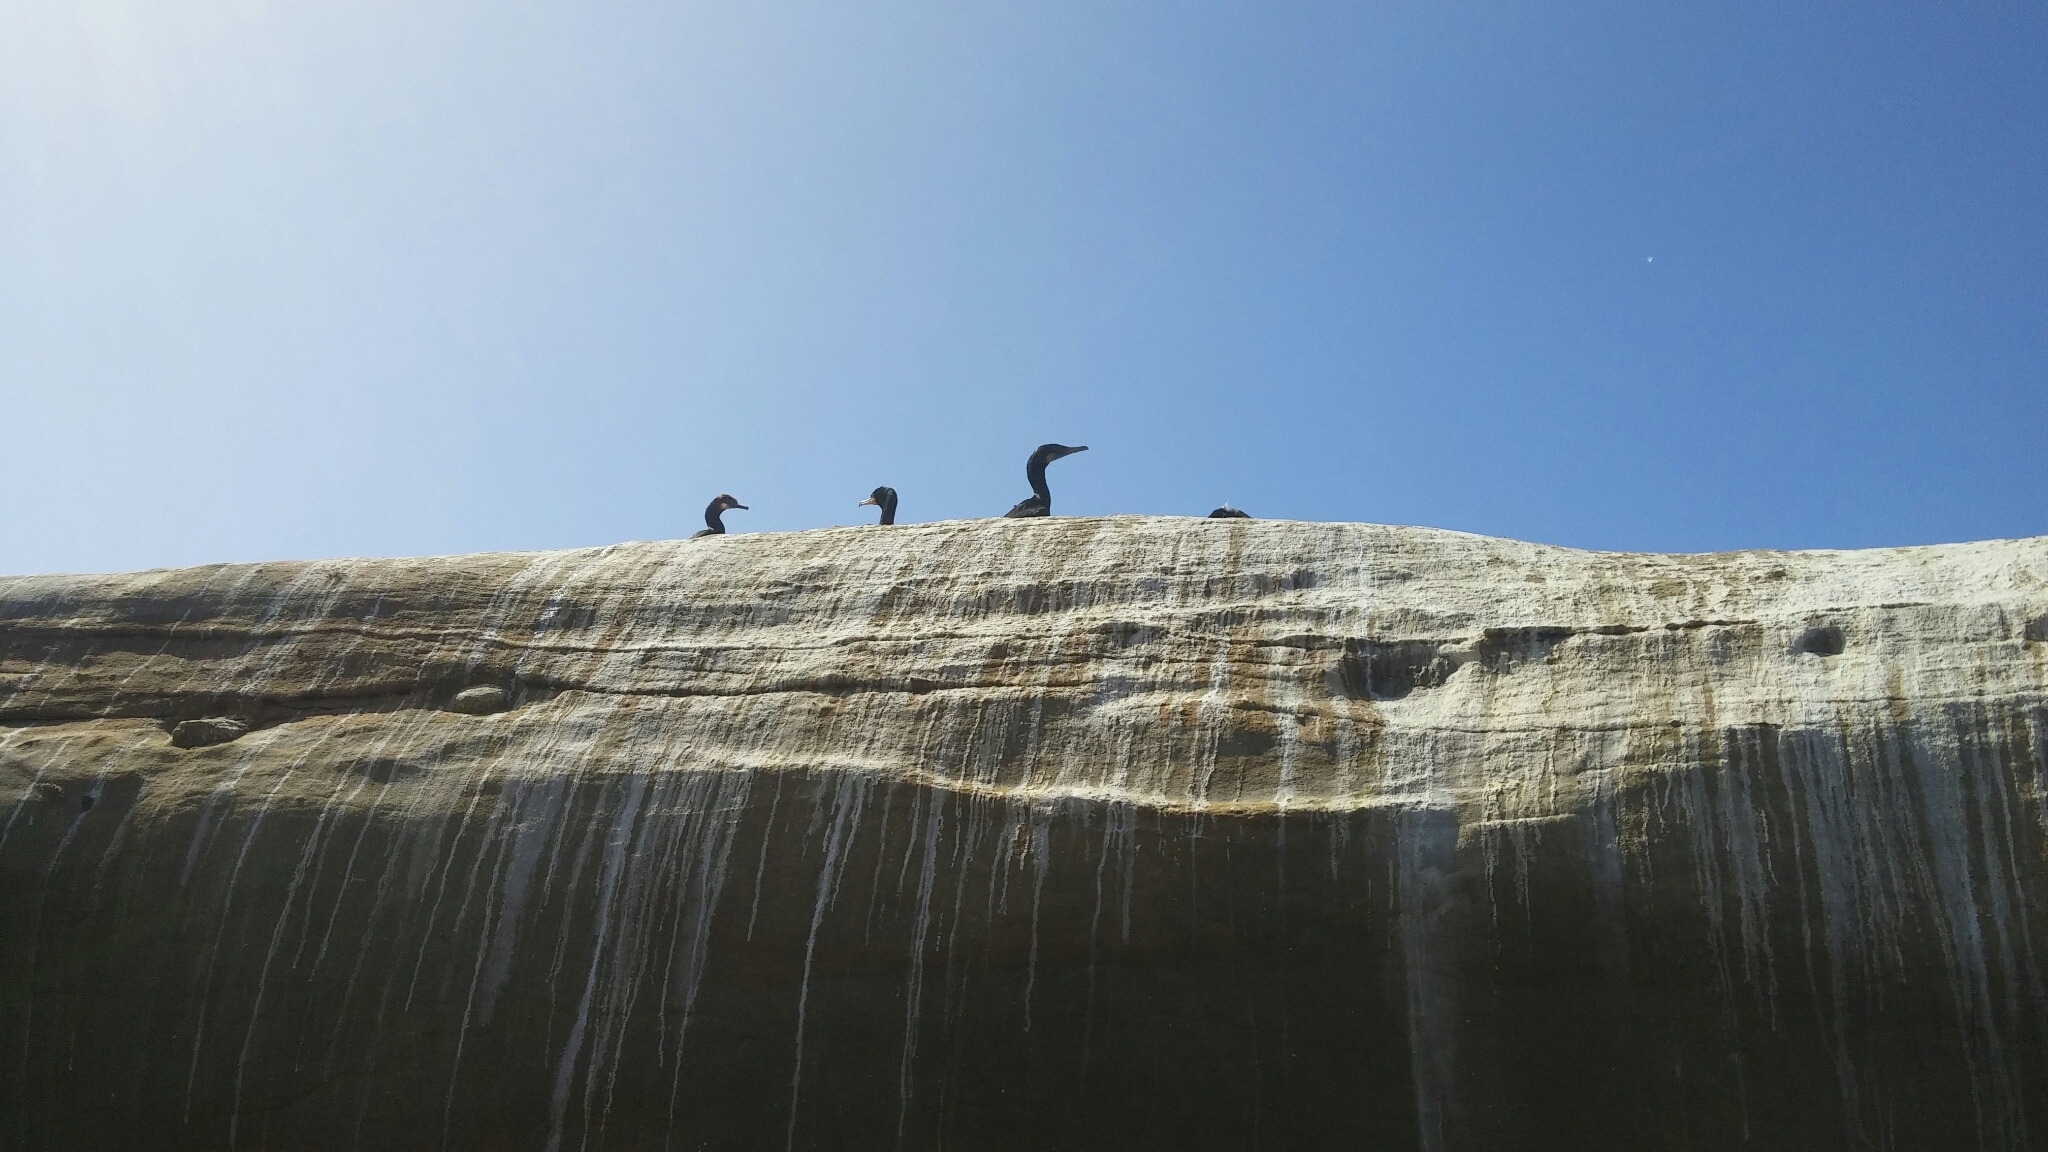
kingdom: Animalia
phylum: Chordata
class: Aves
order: Suliformes
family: Phalacrocoracidae
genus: Urile
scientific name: Urile penicillatus
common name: Brandt's cormorant
